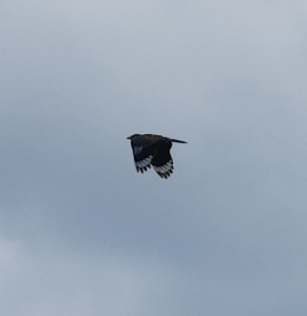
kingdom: Animalia
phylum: Chordata
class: Aves
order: Coraciiformes
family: Coraciidae
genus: Coracias
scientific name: Coracias benghalensis
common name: Indian roller
